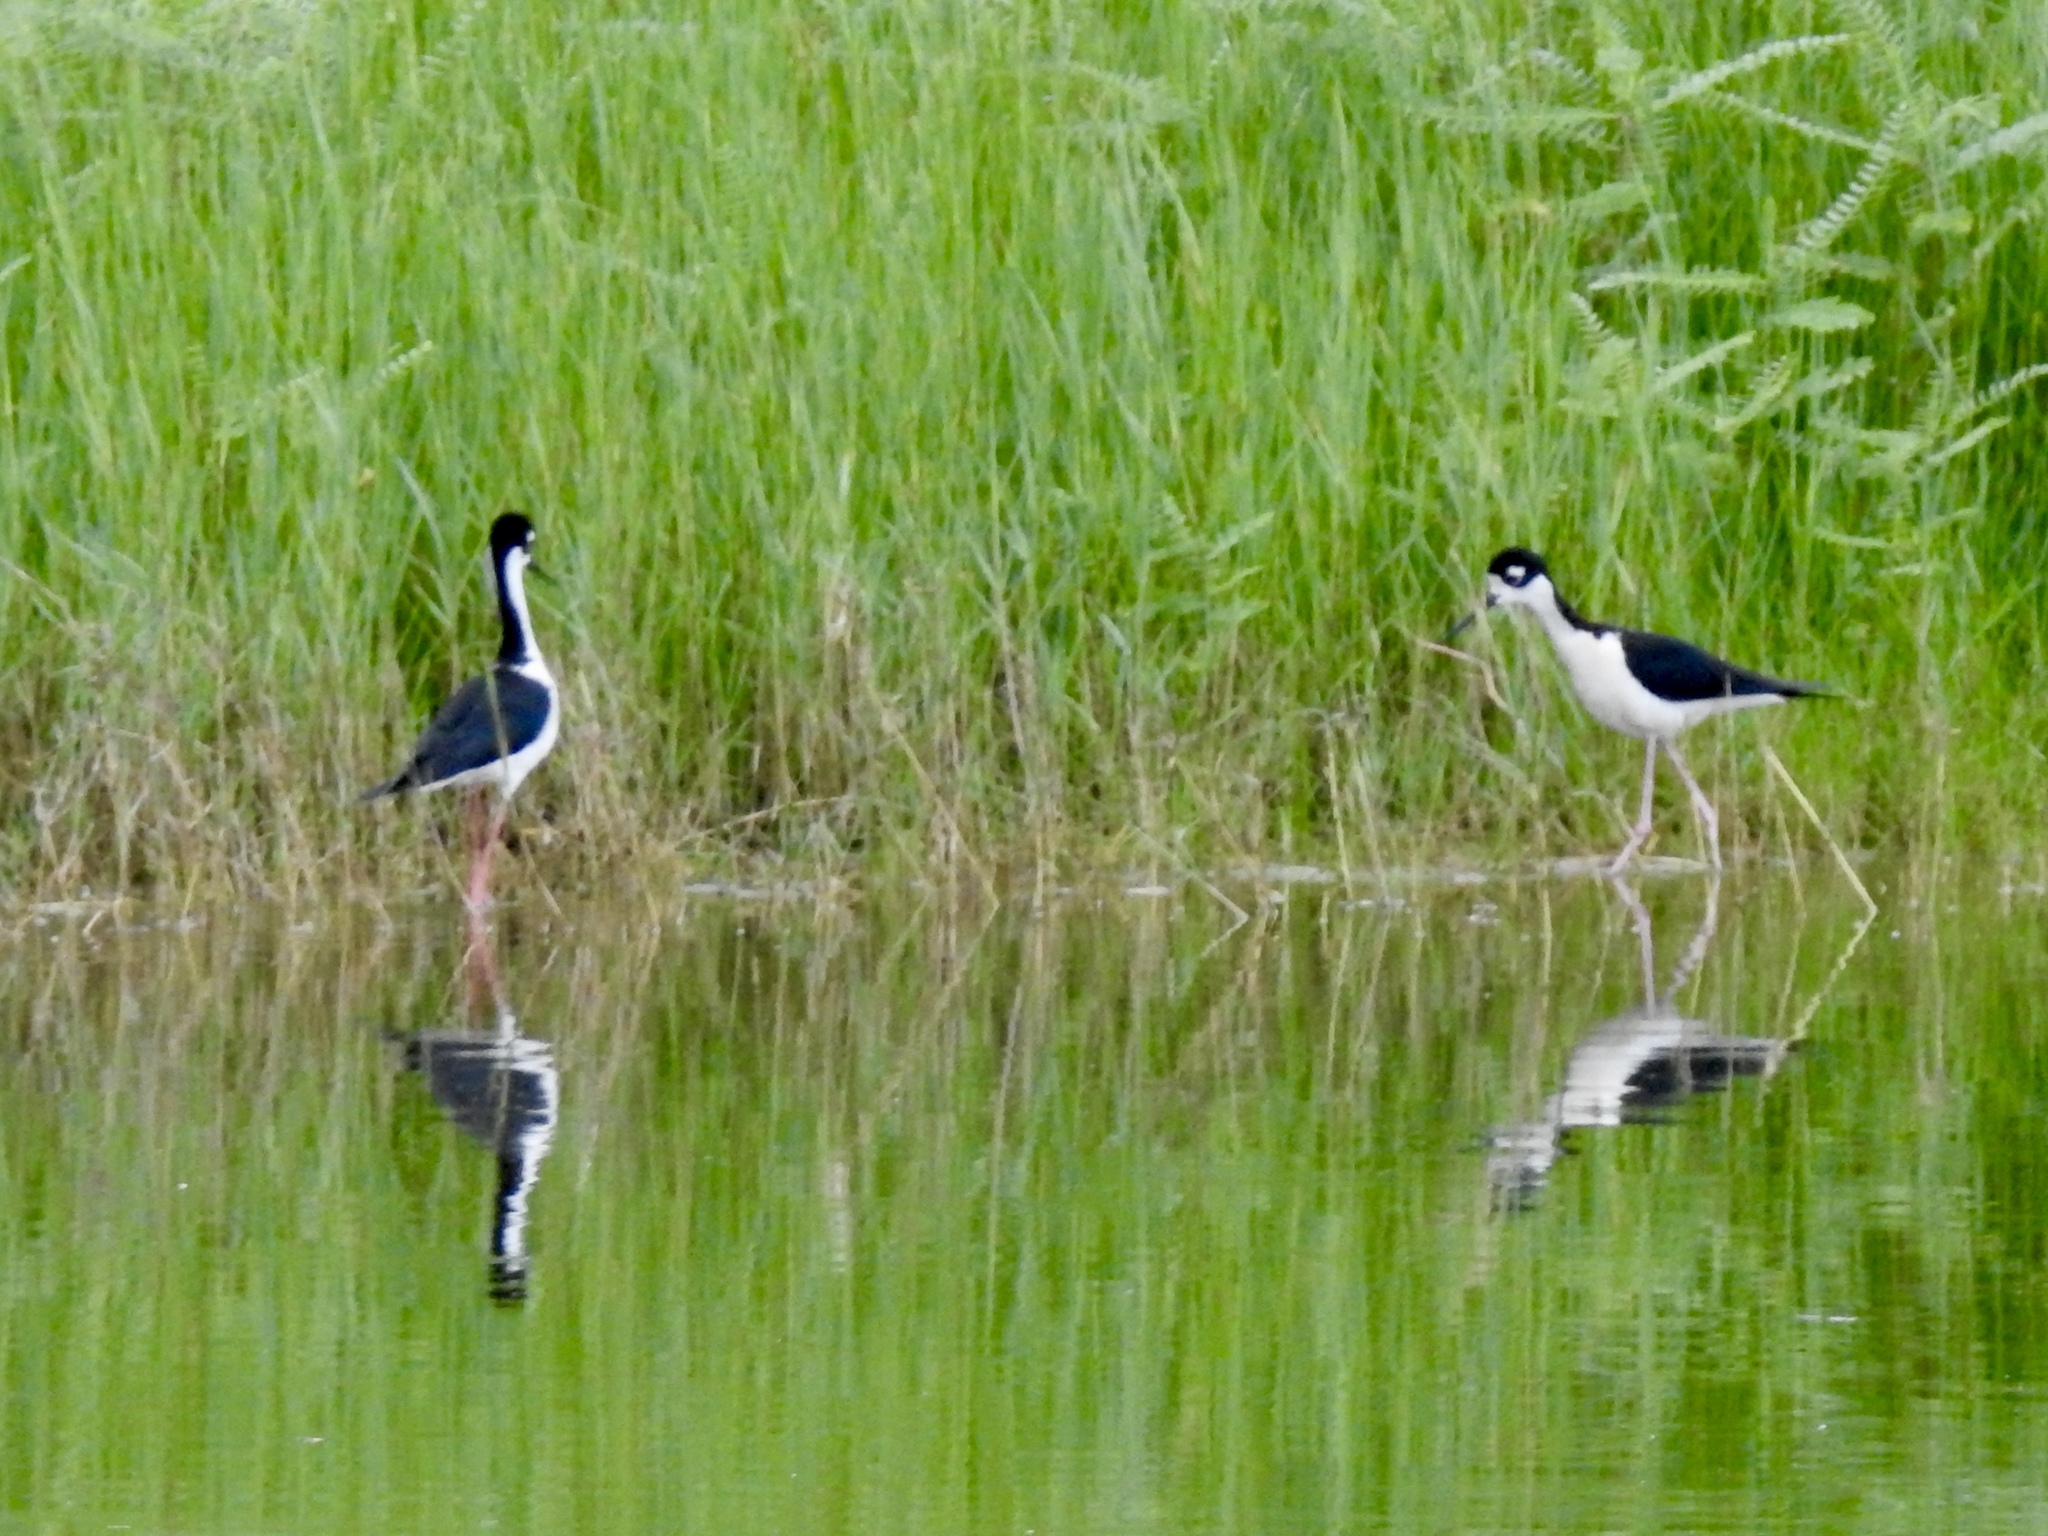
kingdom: Animalia
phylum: Chordata
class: Aves
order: Charadriiformes
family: Recurvirostridae
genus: Himantopus
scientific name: Himantopus mexicanus
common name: Black-necked stilt
